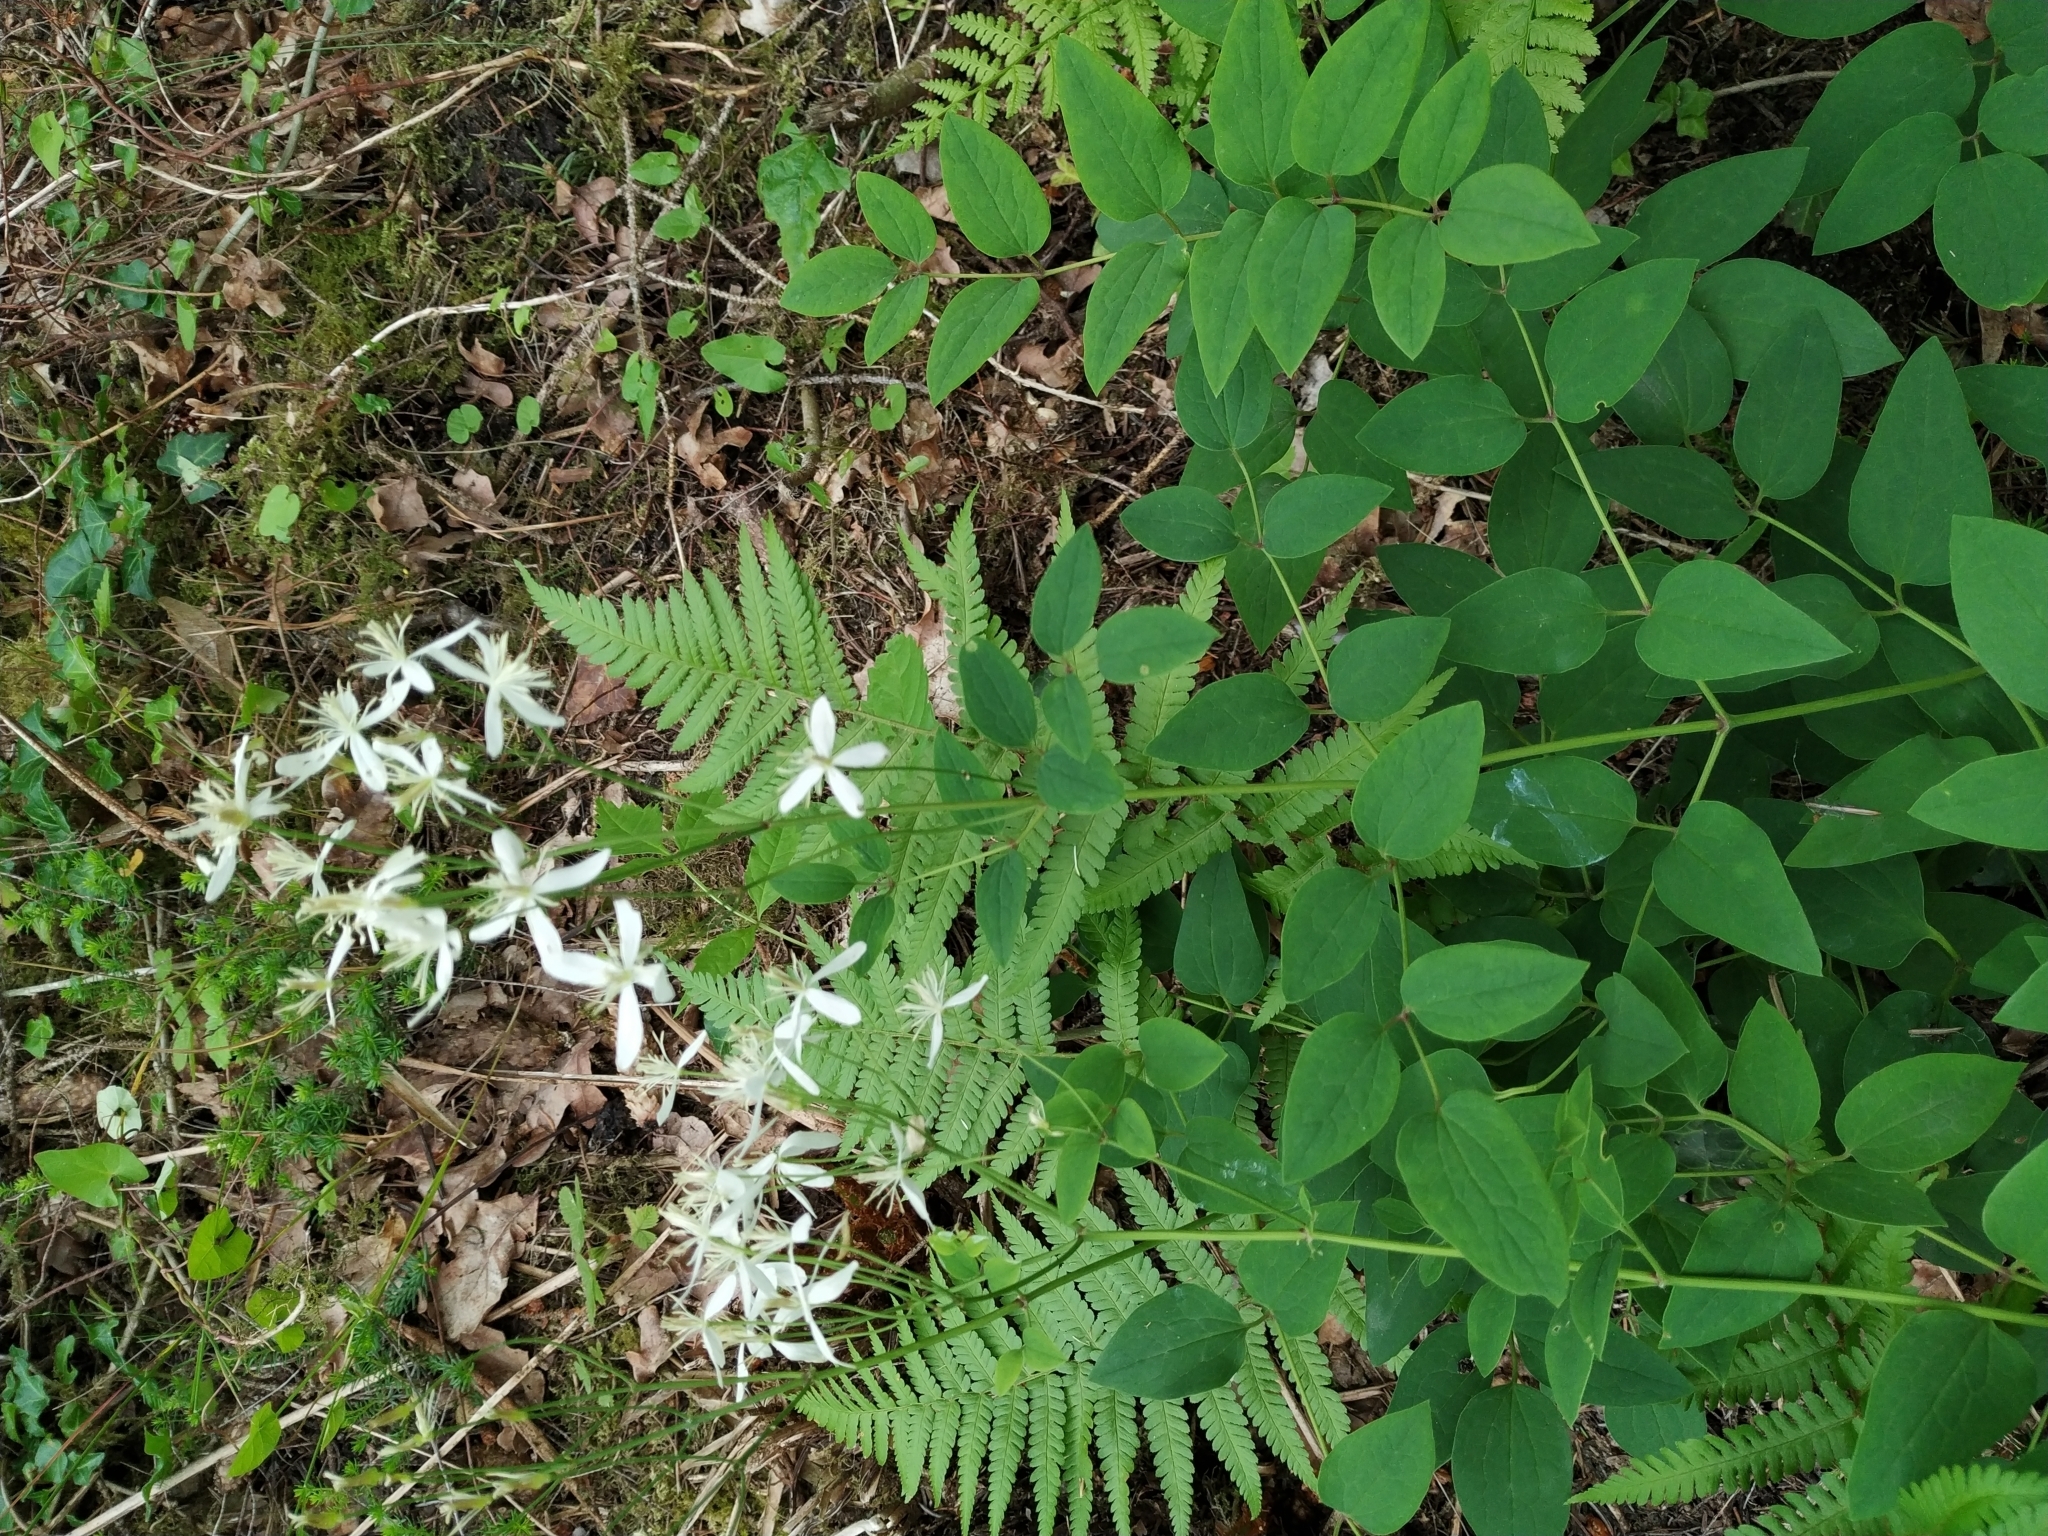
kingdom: Plantae
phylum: Tracheophyta
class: Magnoliopsida
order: Ranunculales
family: Ranunculaceae
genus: Clematis
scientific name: Clematis recta
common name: Ground clematis
